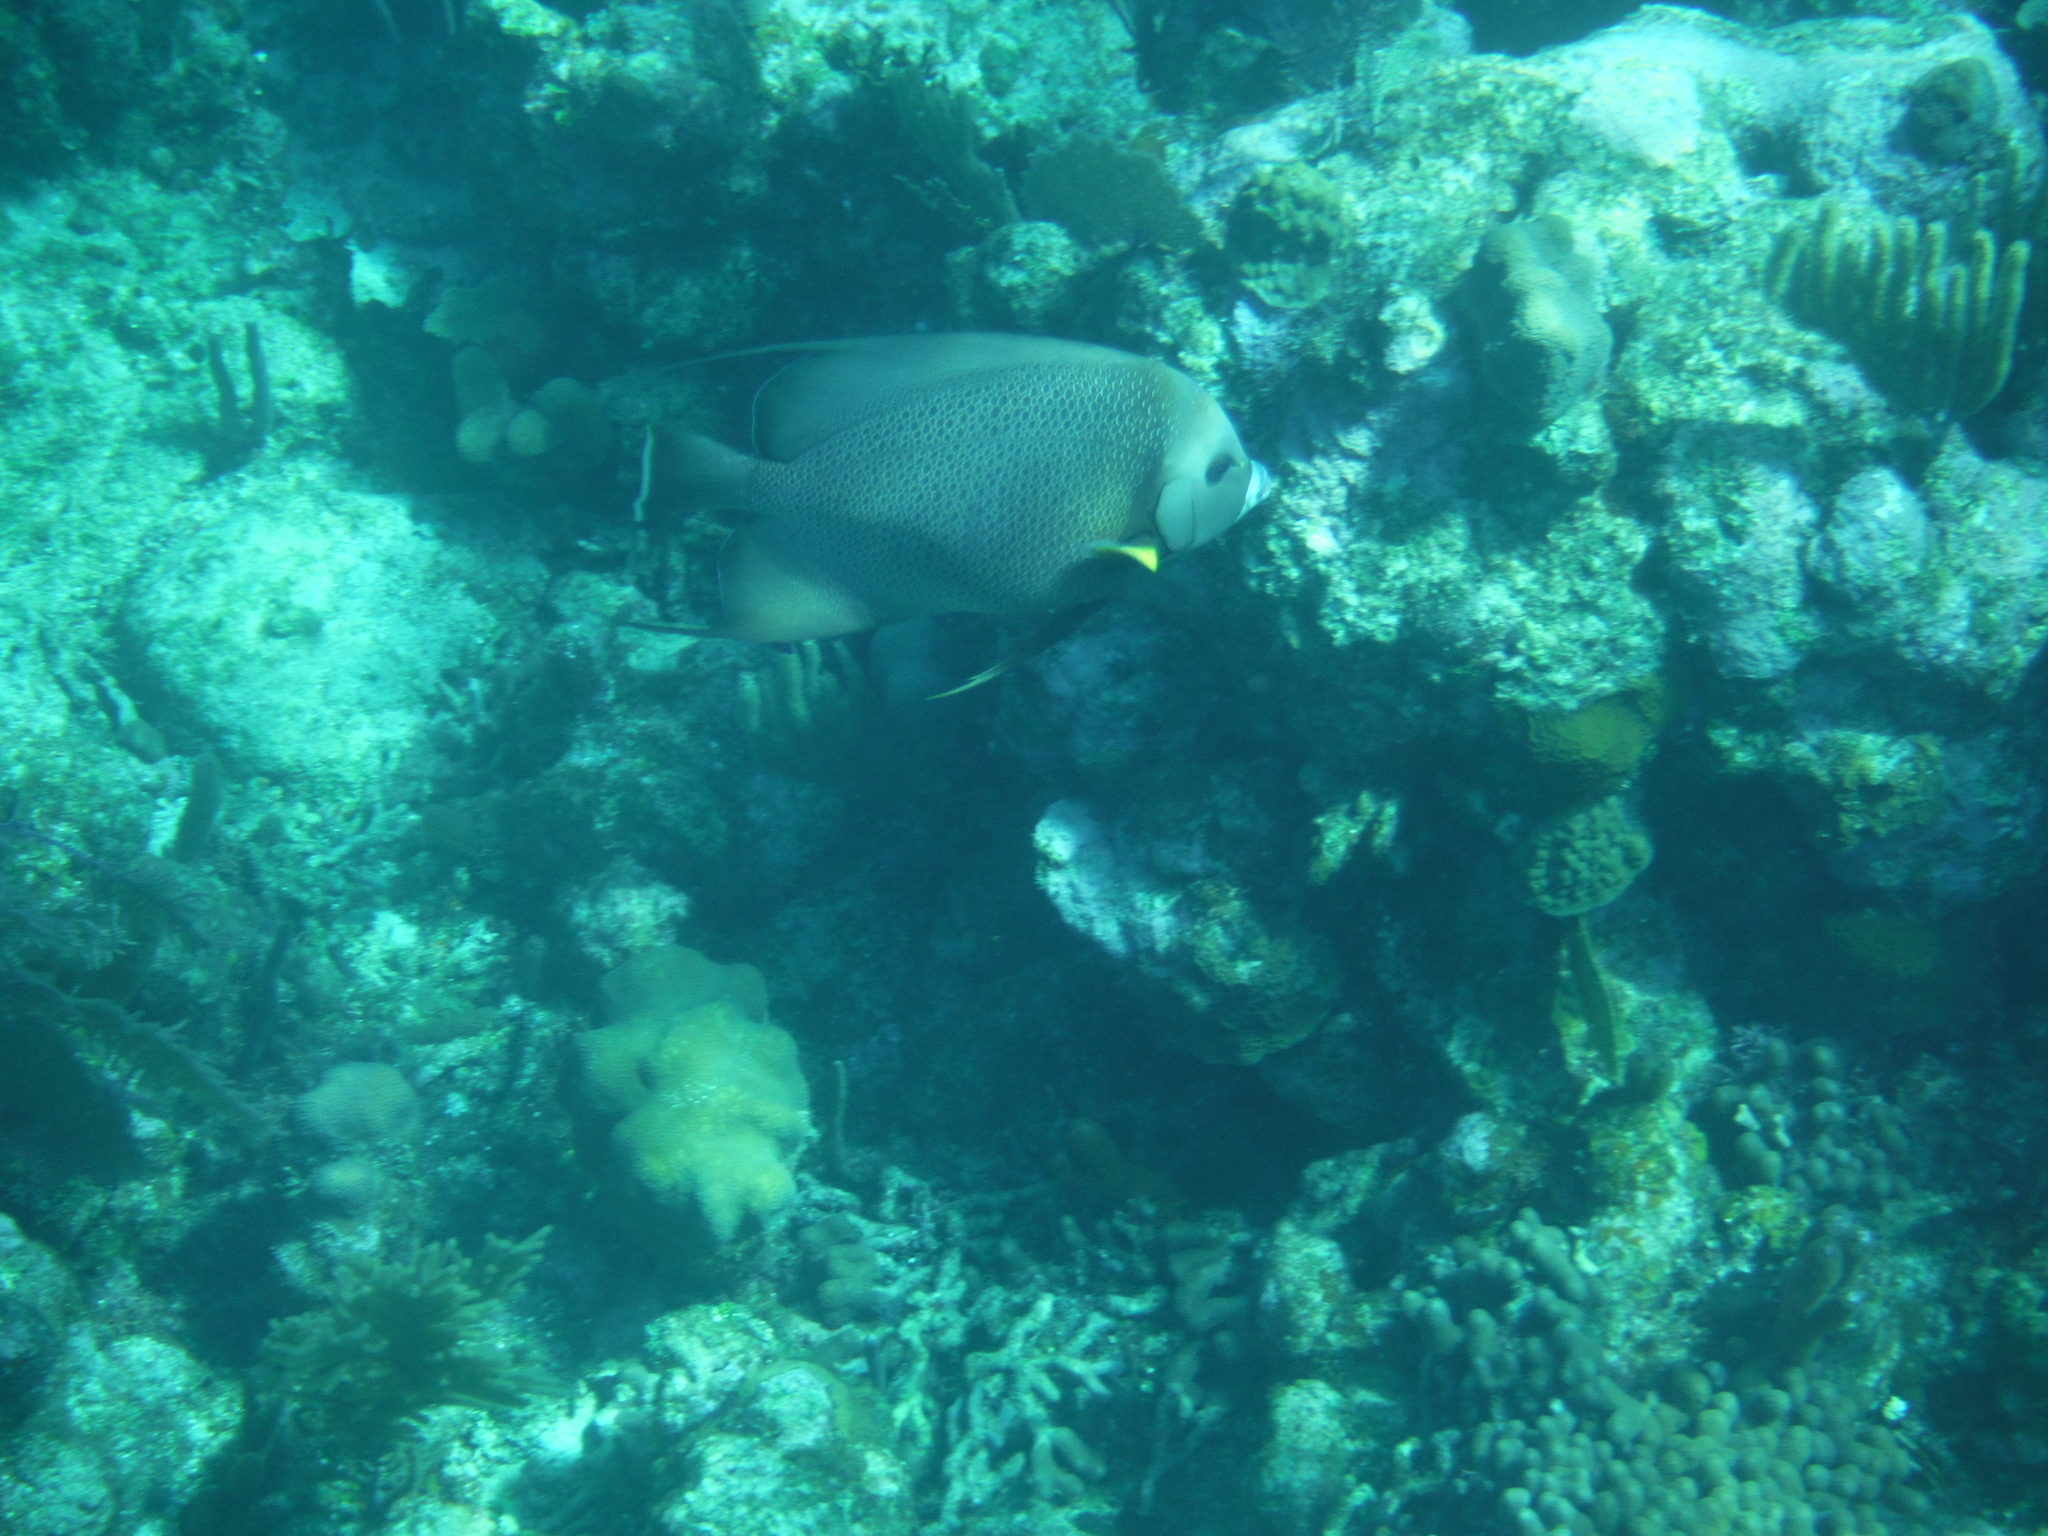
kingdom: Animalia
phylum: Chordata
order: Perciformes
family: Pomacanthidae
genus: Pomacanthus
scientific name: Pomacanthus arcuatus
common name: Gray angelfish
